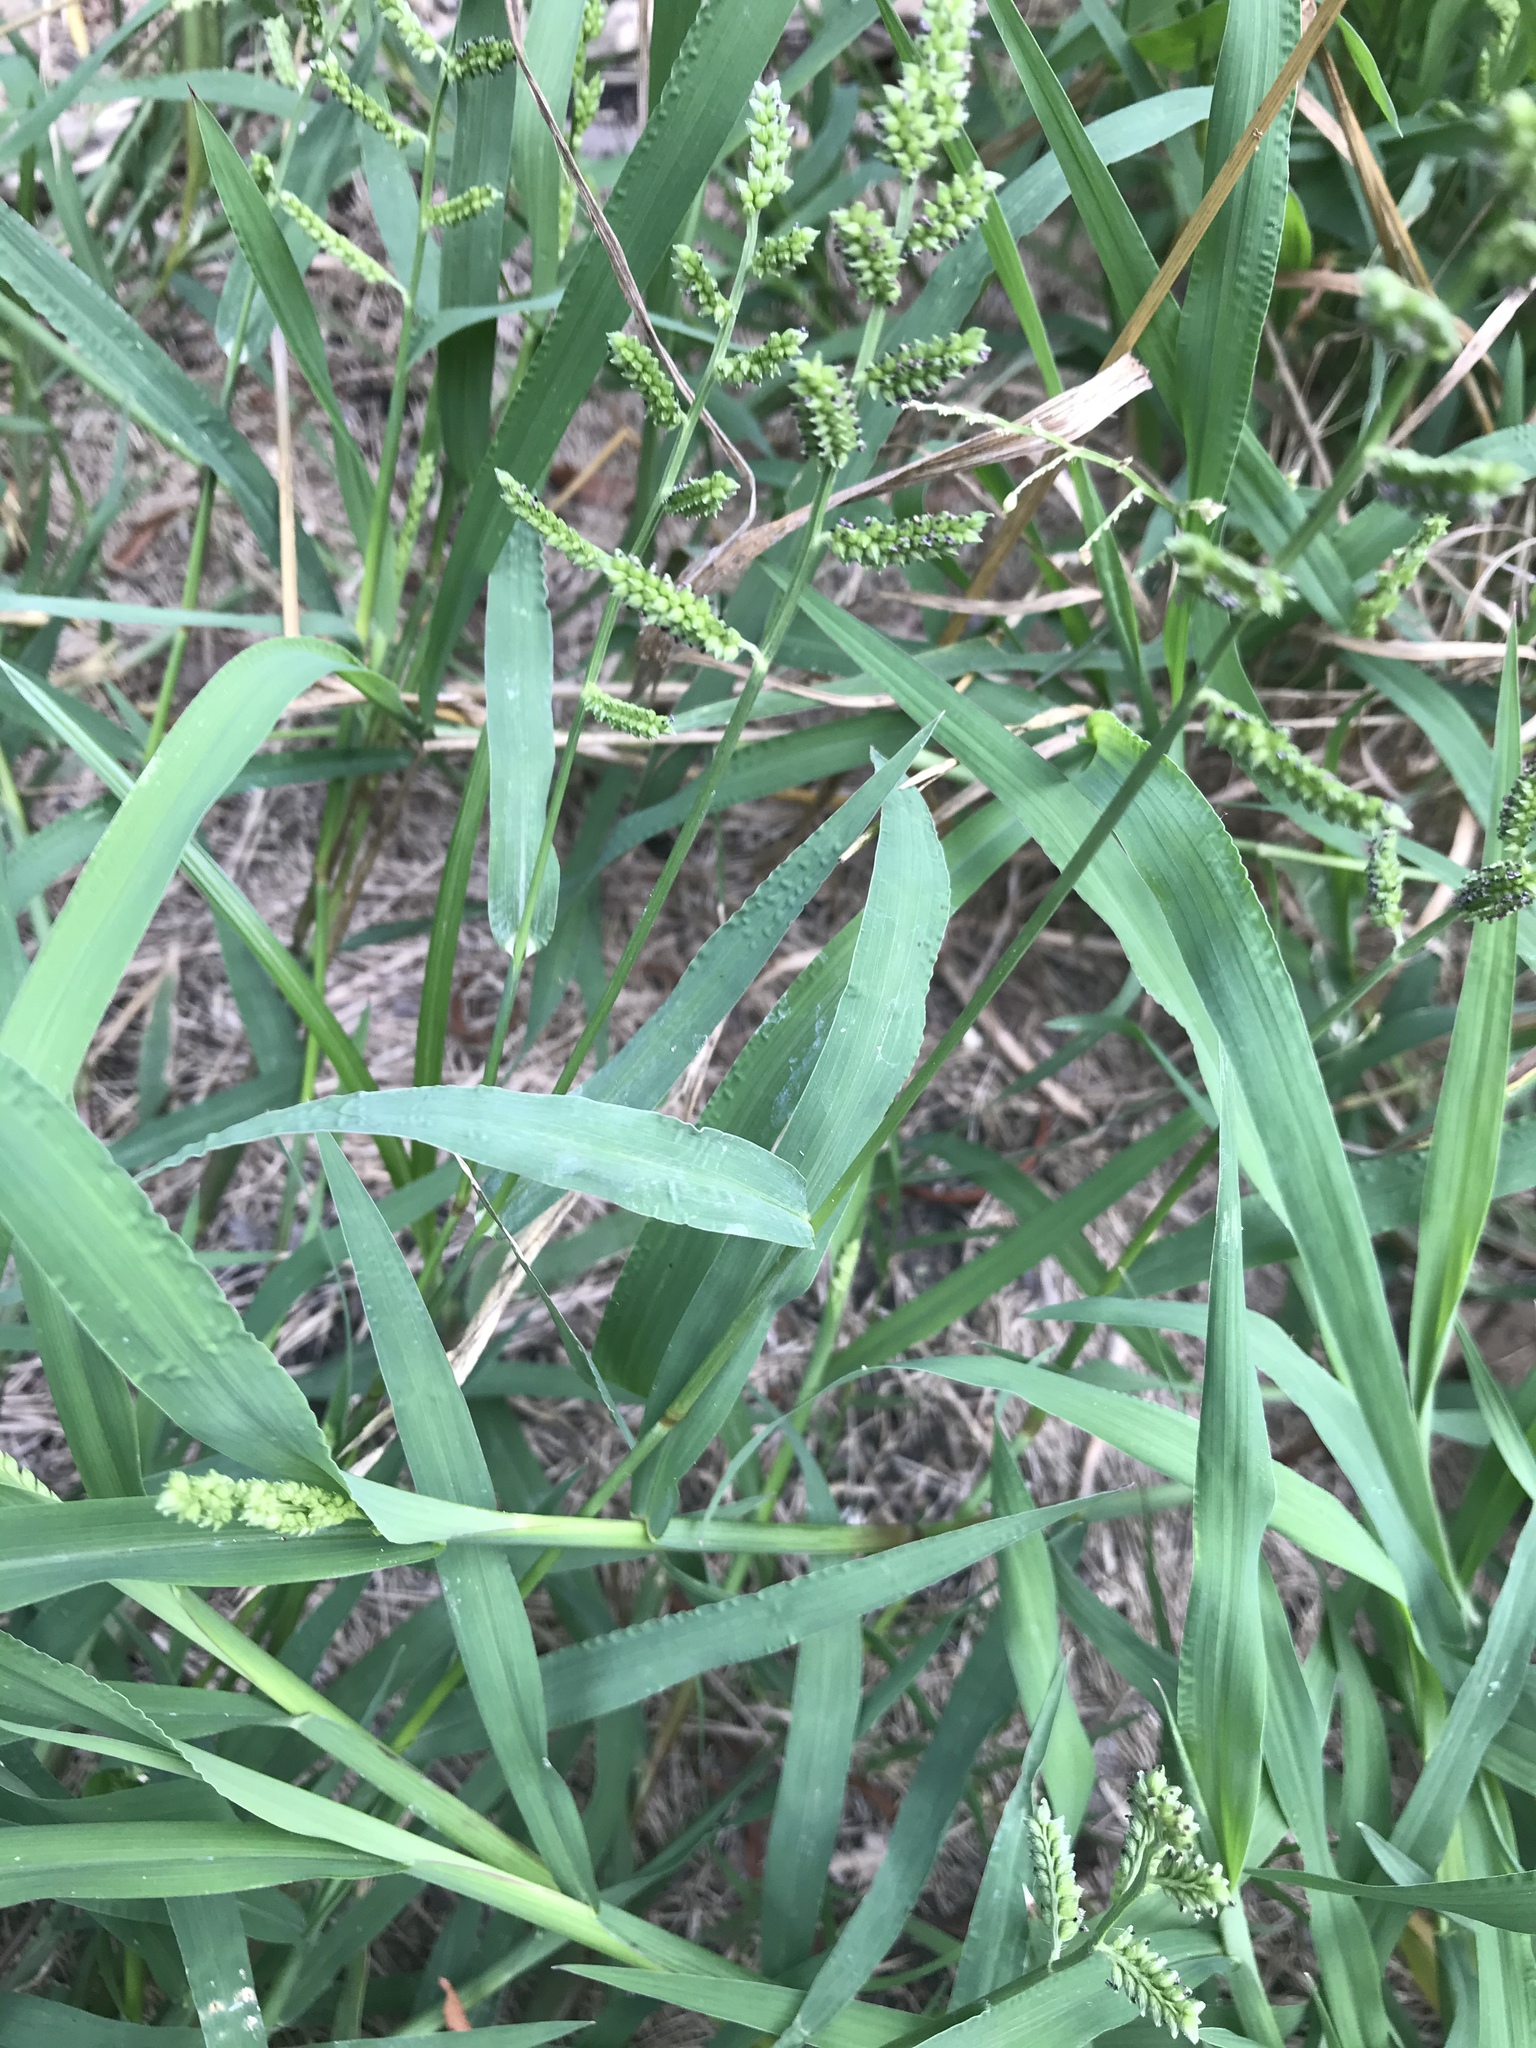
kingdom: Plantae
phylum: Tracheophyta
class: Liliopsida
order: Poales
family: Poaceae
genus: Echinochloa
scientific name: Echinochloa colonum
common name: Jungle rice
